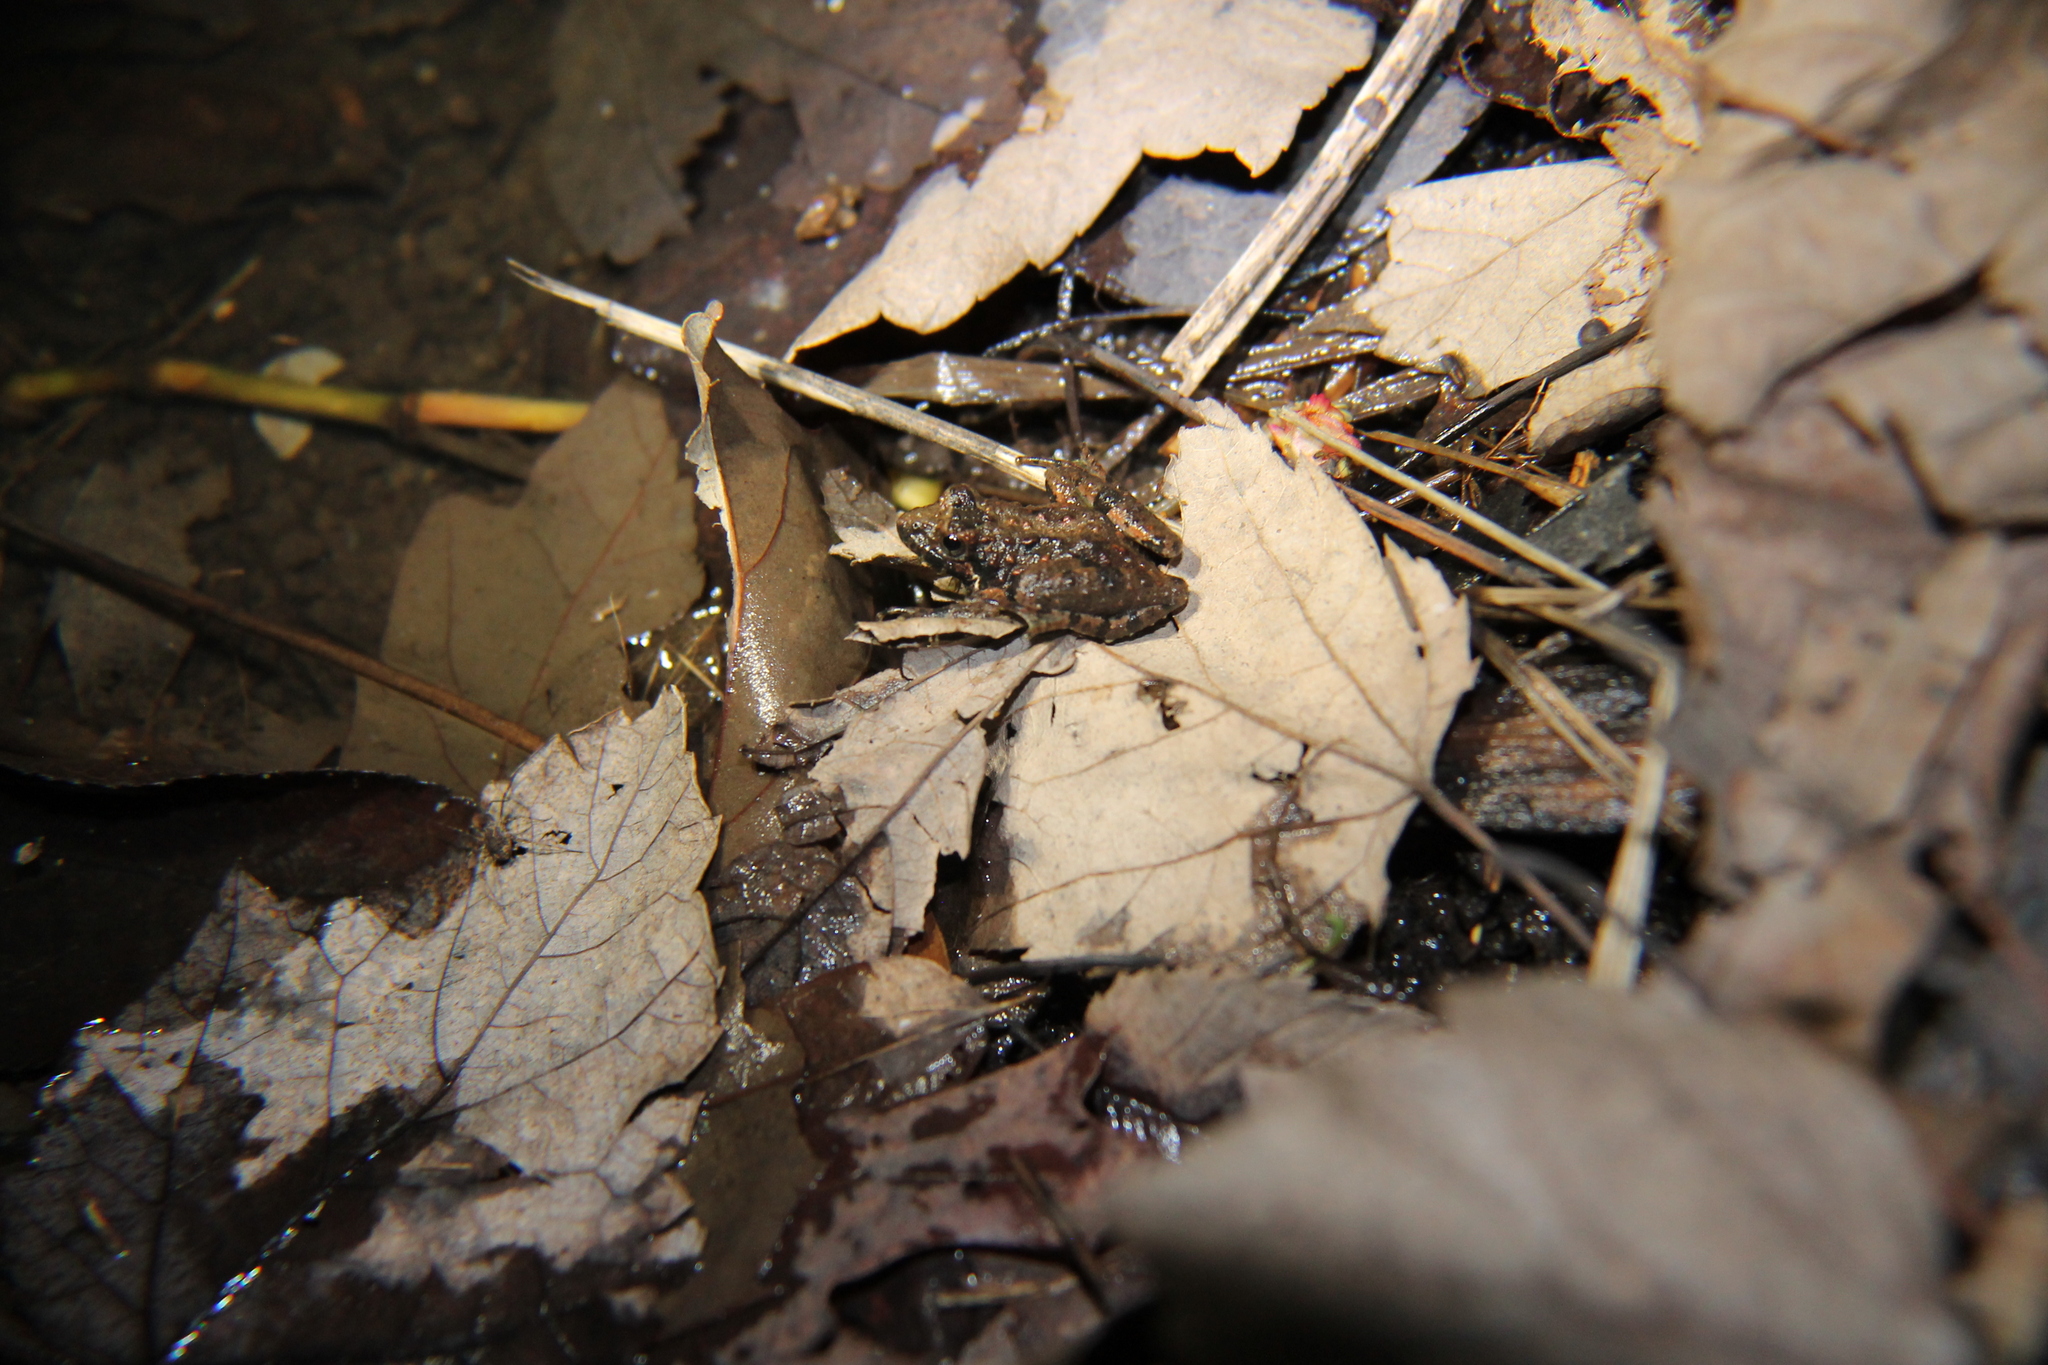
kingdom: Animalia
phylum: Chordata
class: Amphibia
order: Anura
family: Hylidae
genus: Acris
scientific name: Acris crepitans
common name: Northern cricket frog
